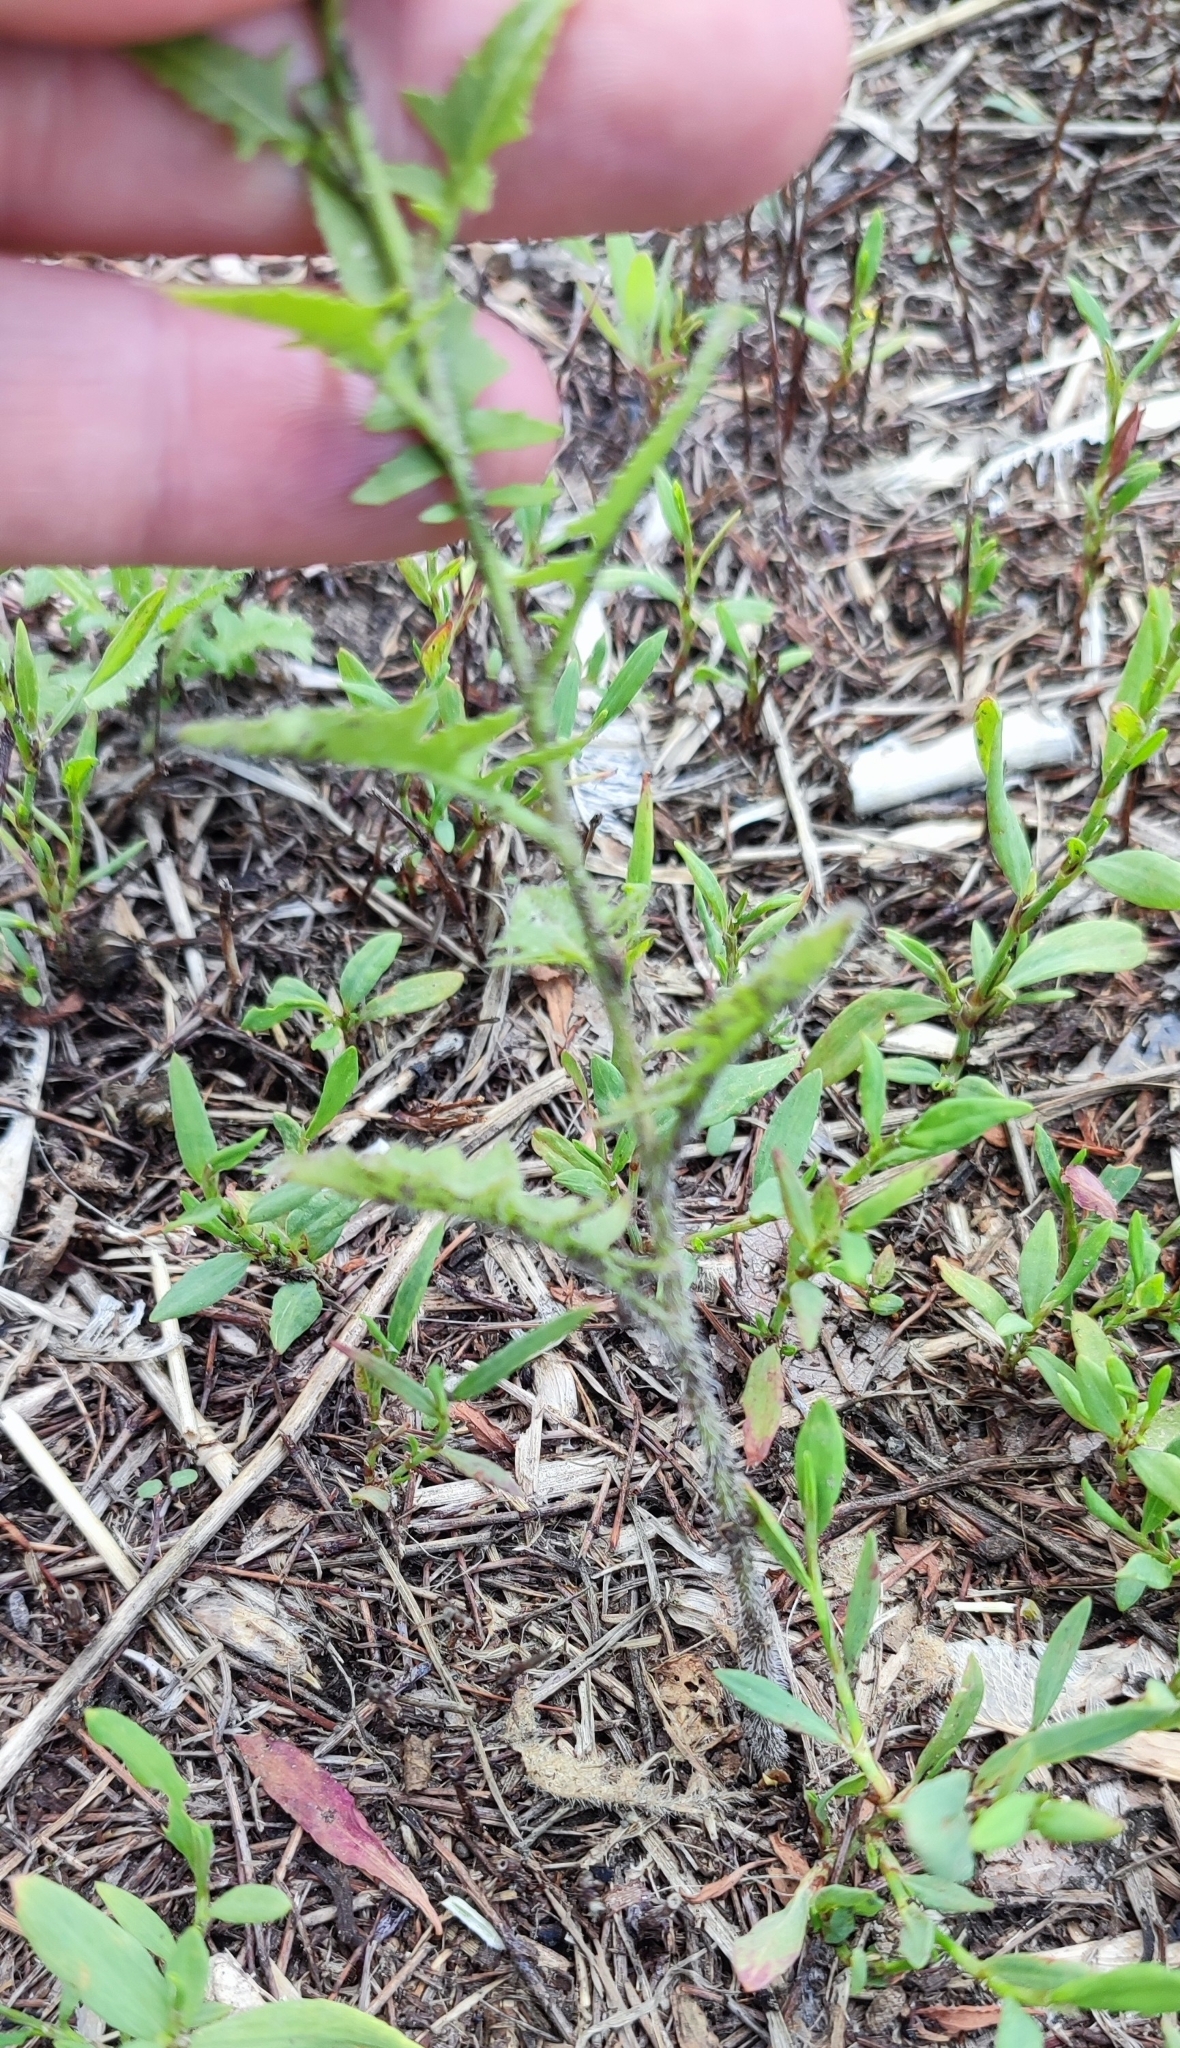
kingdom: Plantae
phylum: Tracheophyta
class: Magnoliopsida
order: Brassicales
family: Brassicaceae
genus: Sisymbrium
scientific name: Sisymbrium loeselii
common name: False london-rocket
